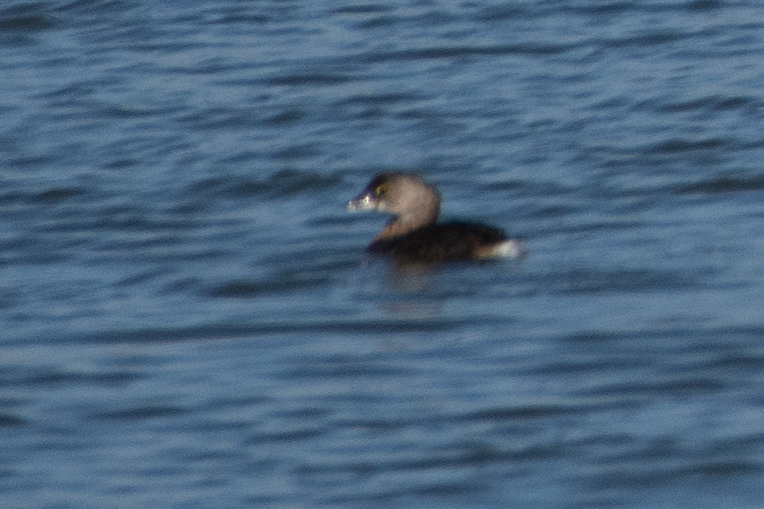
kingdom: Animalia
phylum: Chordata
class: Aves
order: Podicipediformes
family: Podicipedidae
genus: Podilymbus
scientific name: Podilymbus podiceps
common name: Pied-billed grebe
